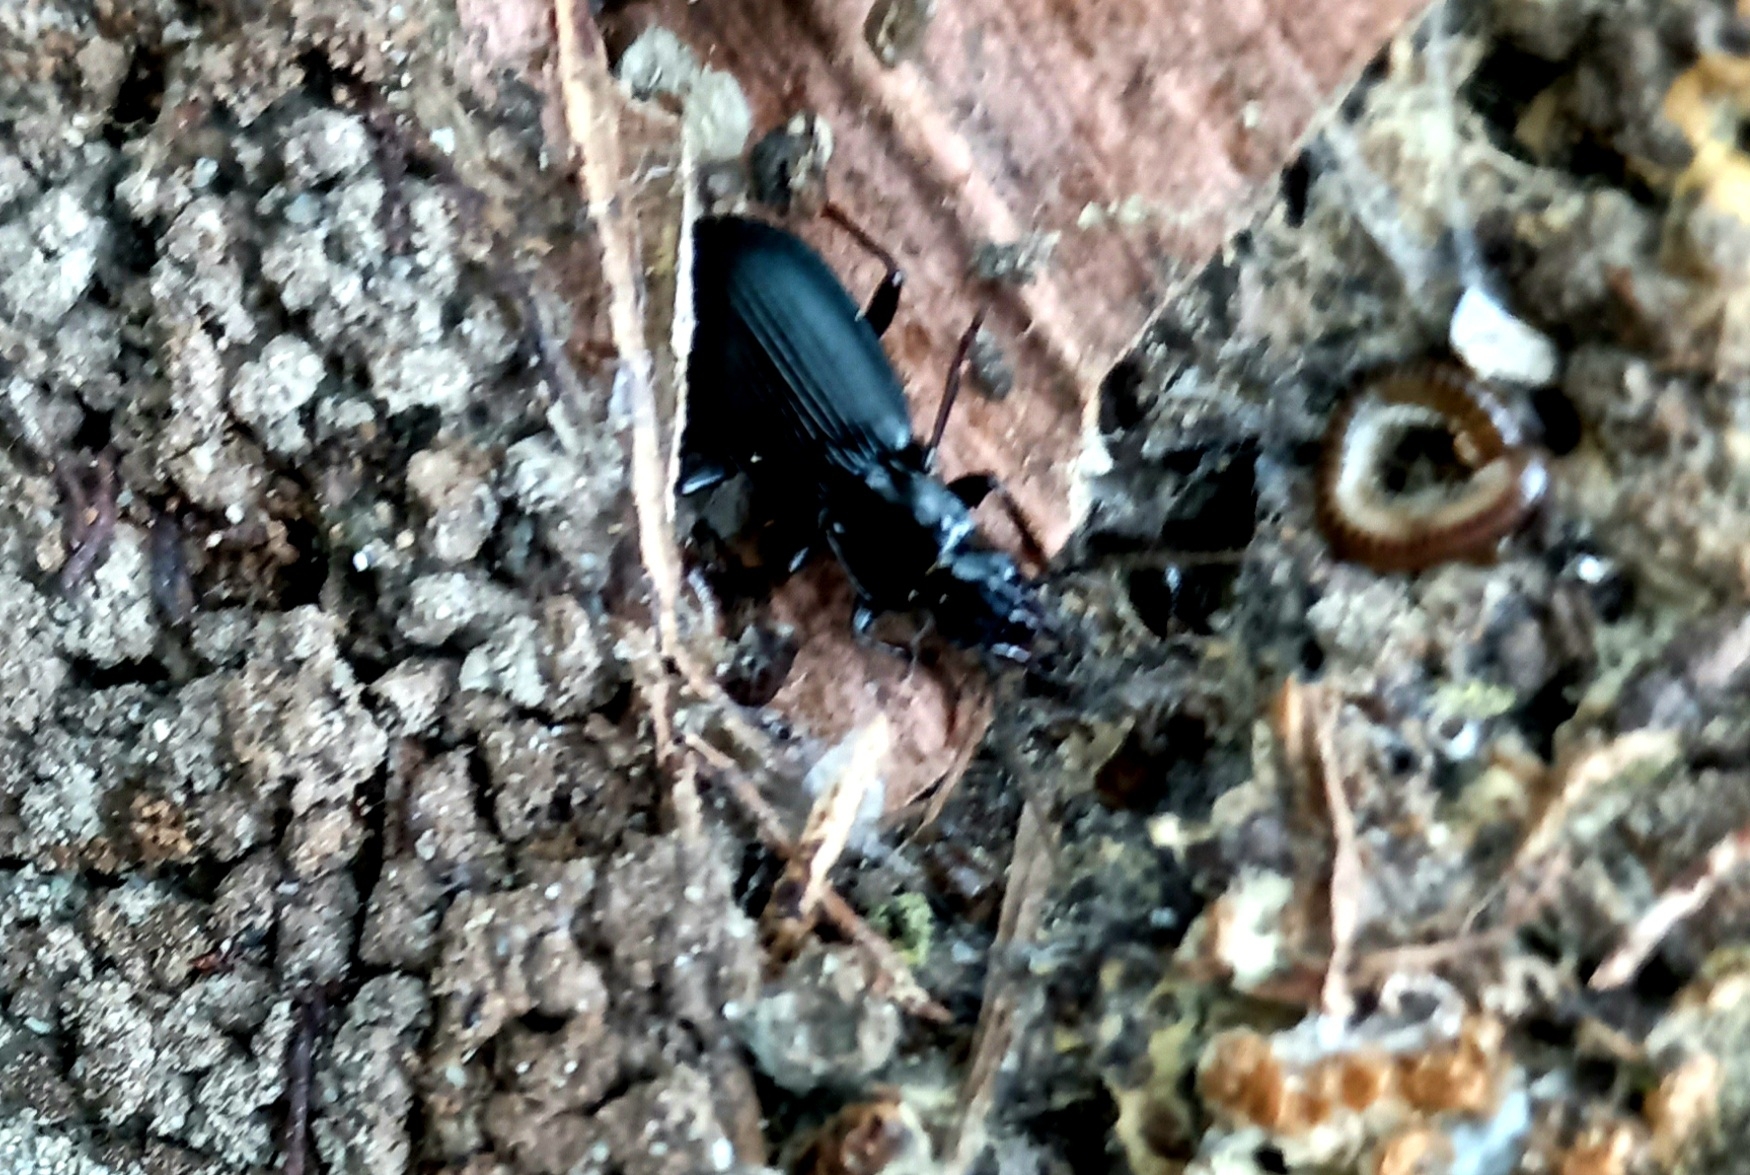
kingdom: Animalia
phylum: Arthropoda
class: Insecta
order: Coleoptera
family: Carabidae
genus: Laemostenus
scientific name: Laemostenus complanatus
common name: Cosmopolitan ground beetle
